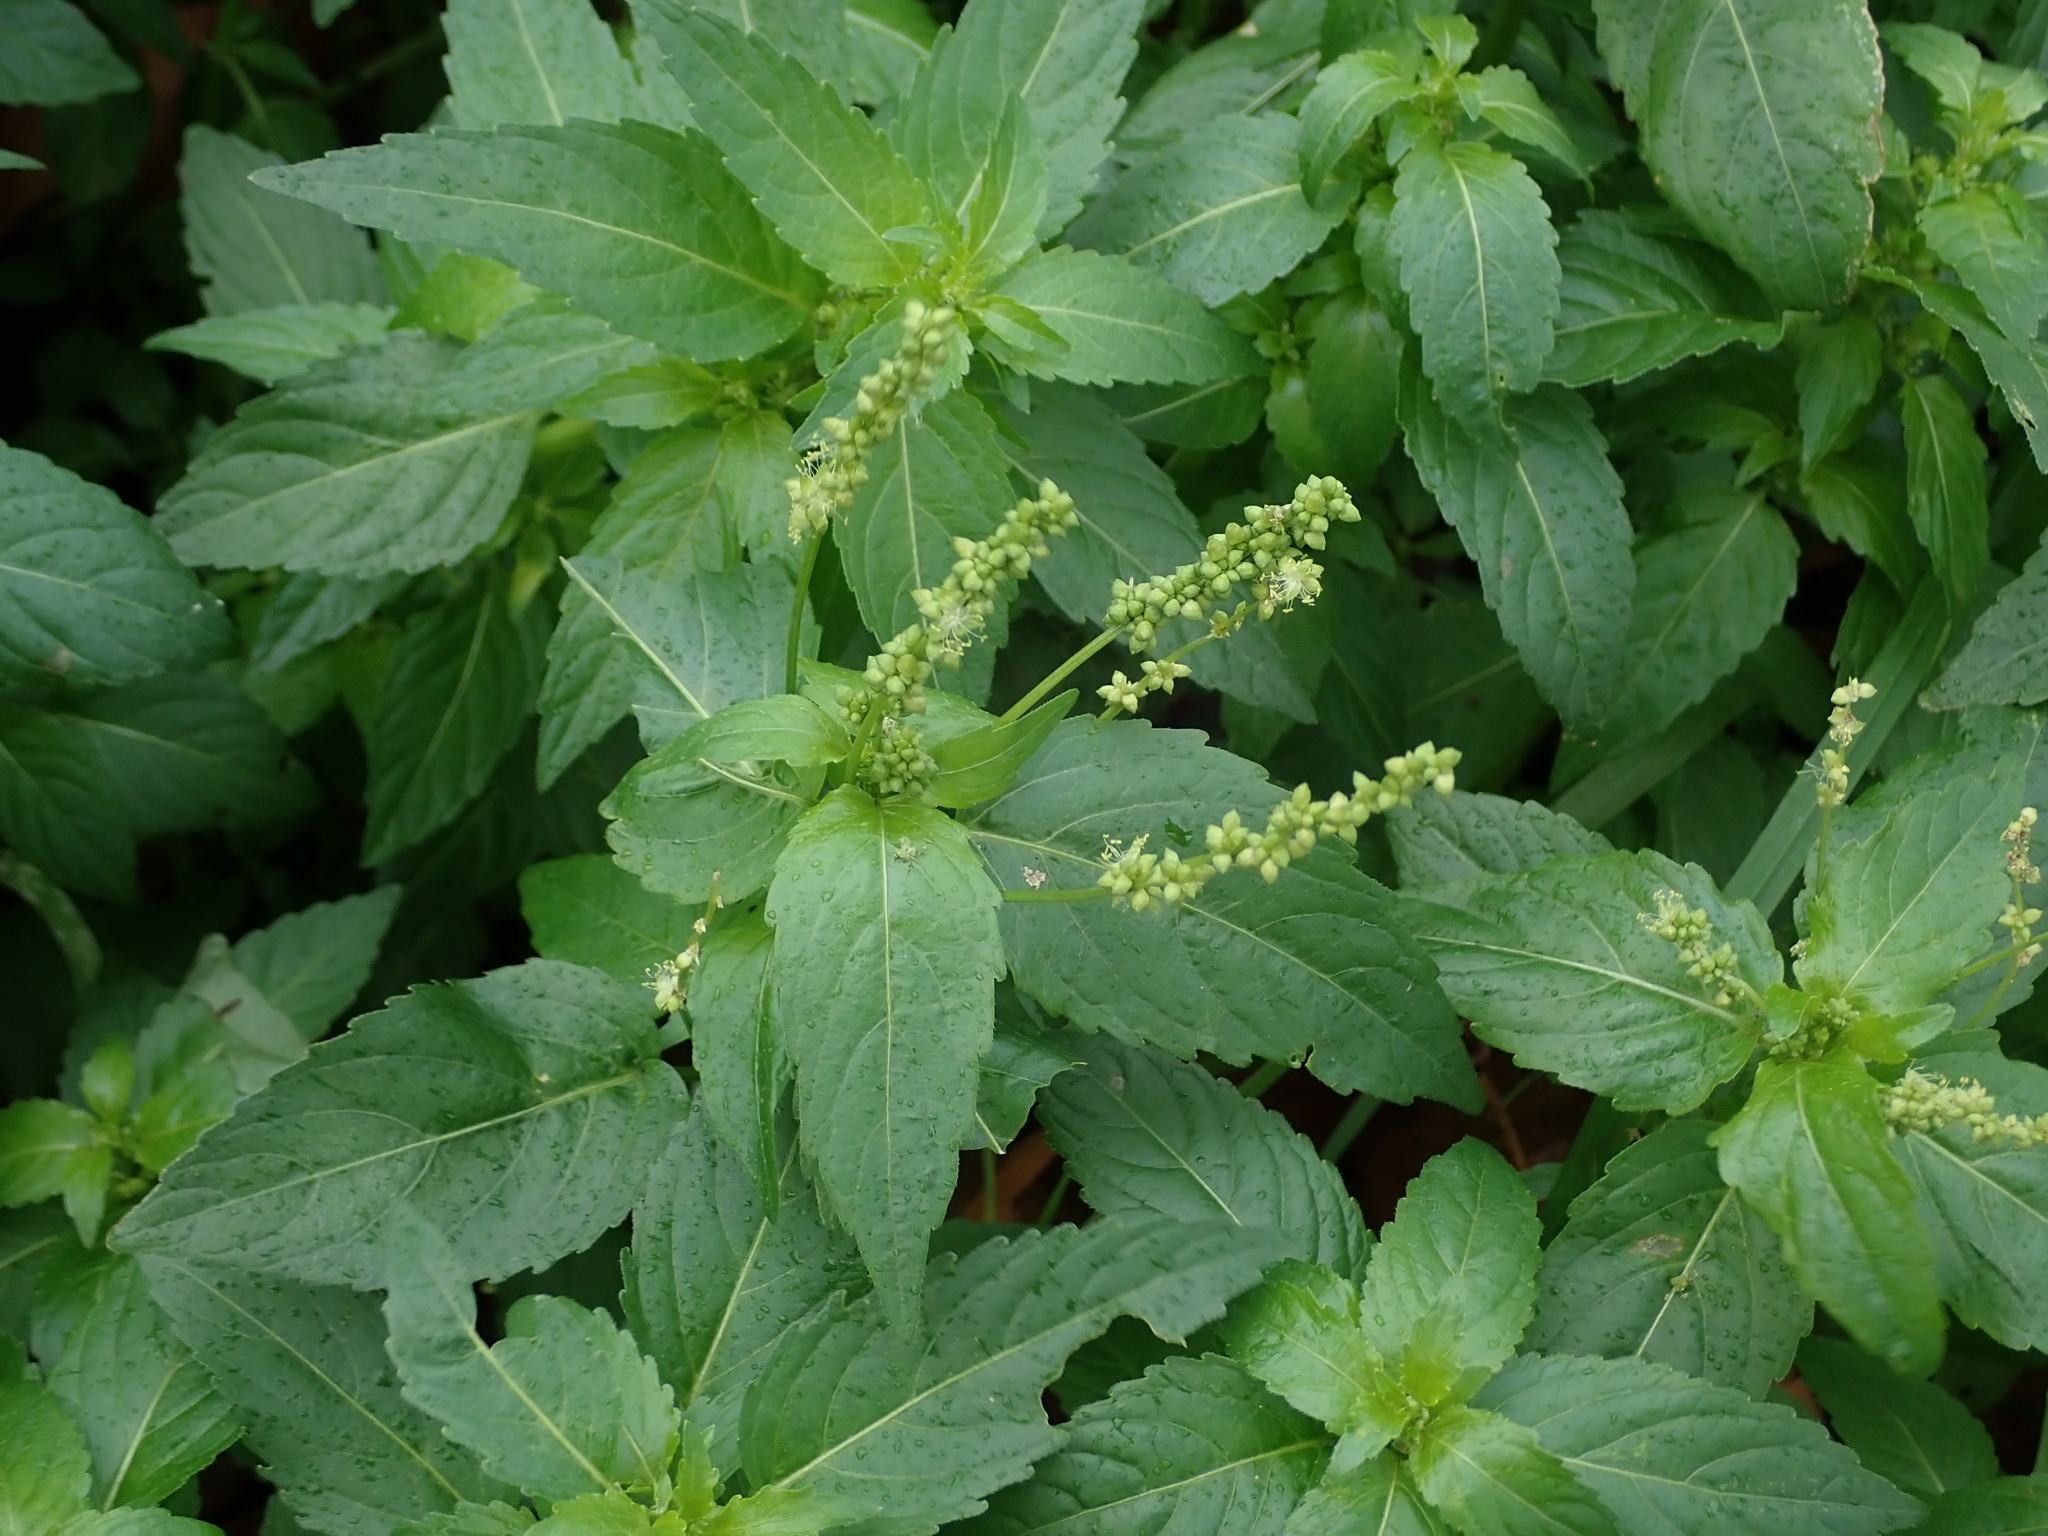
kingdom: Plantae
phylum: Tracheophyta
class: Magnoliopsida
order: Malpighiales
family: Euphorbiaceae
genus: Mercurialis
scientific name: Mercurialis annua
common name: Annual mercury
